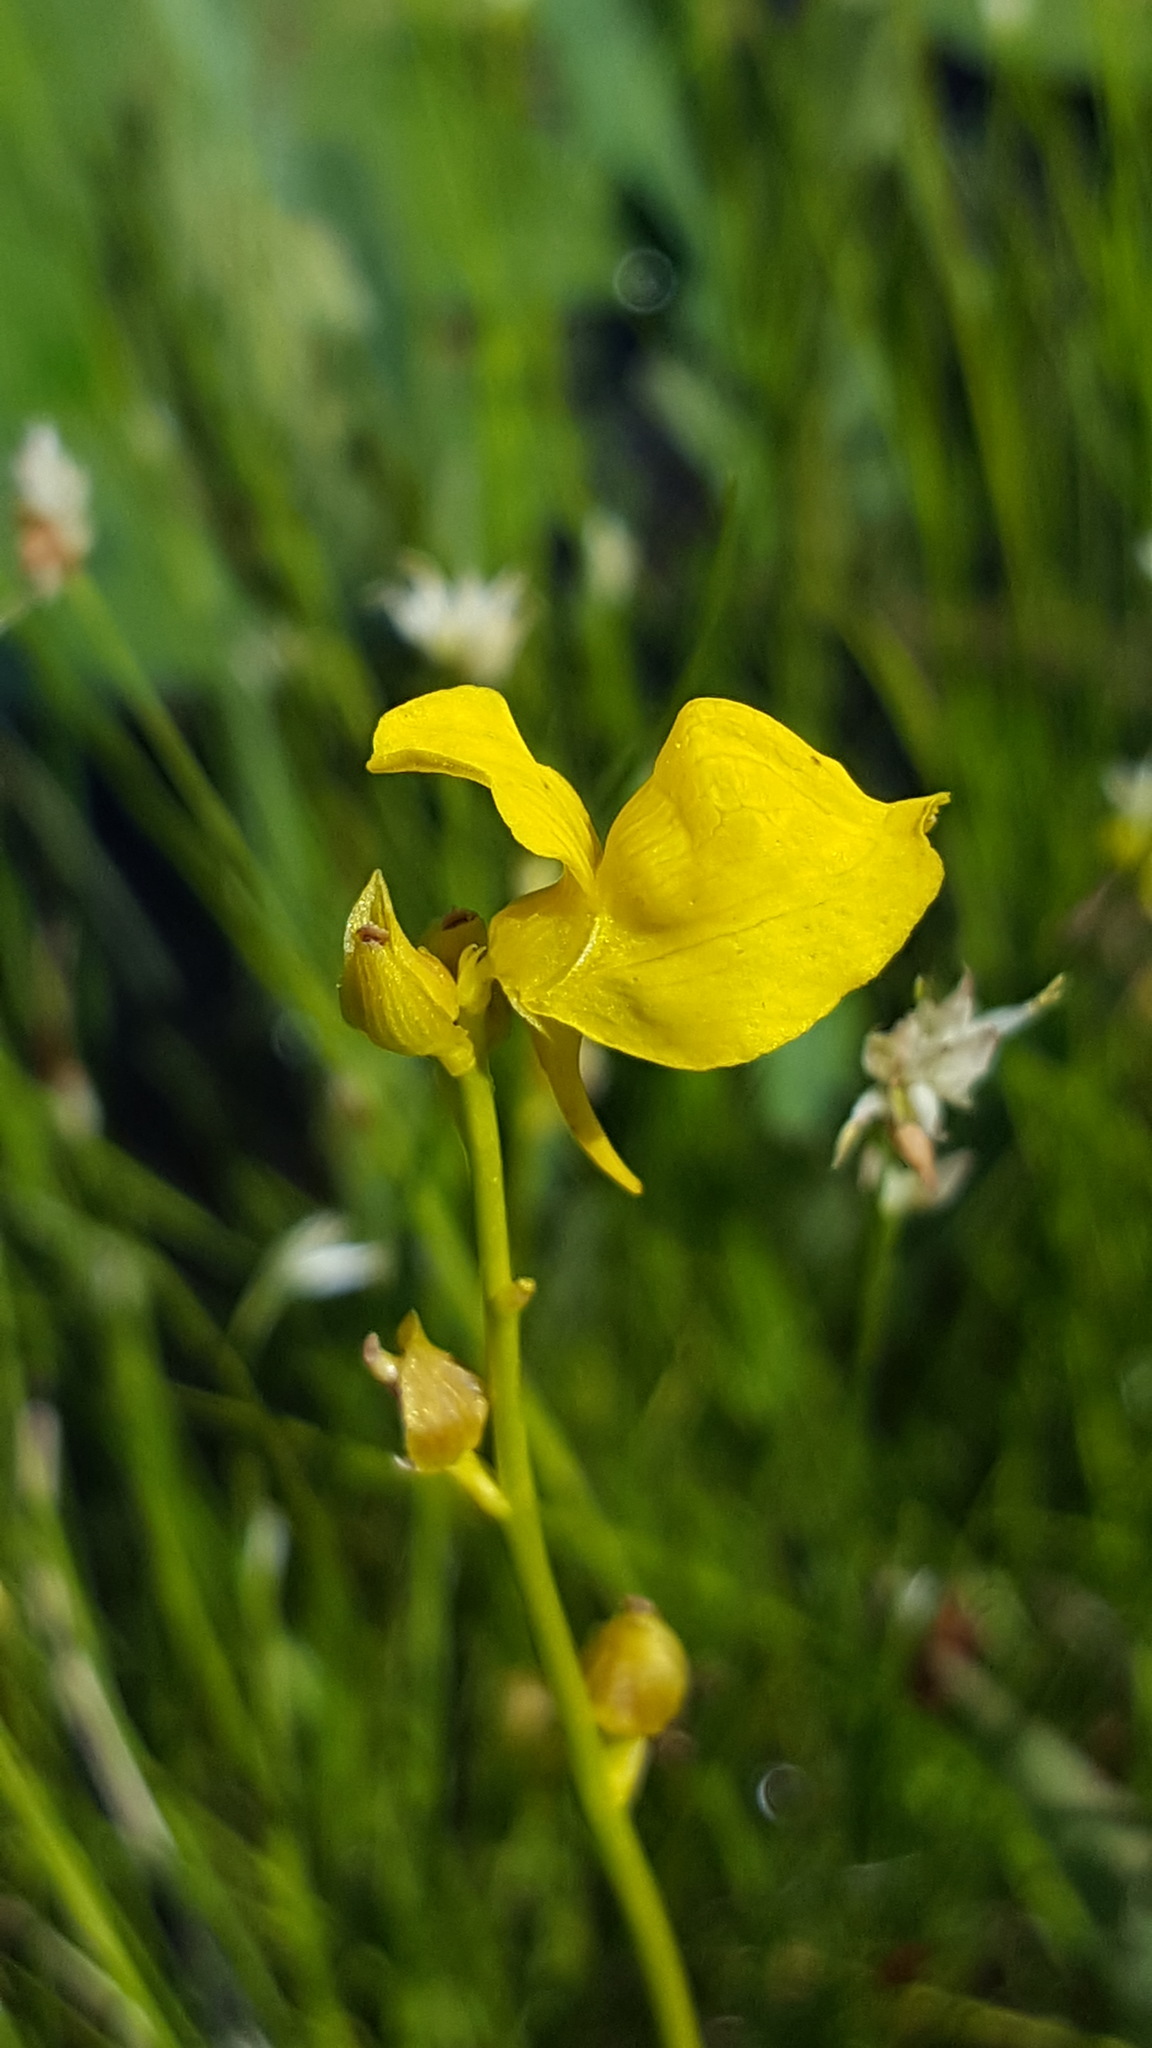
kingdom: Plantae
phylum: Tracheophyta
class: Magnoliopsida
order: Lamiales
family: Lentibulariaceae
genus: Utricularia
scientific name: Utricularia cornuta
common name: Horned bladderwort
